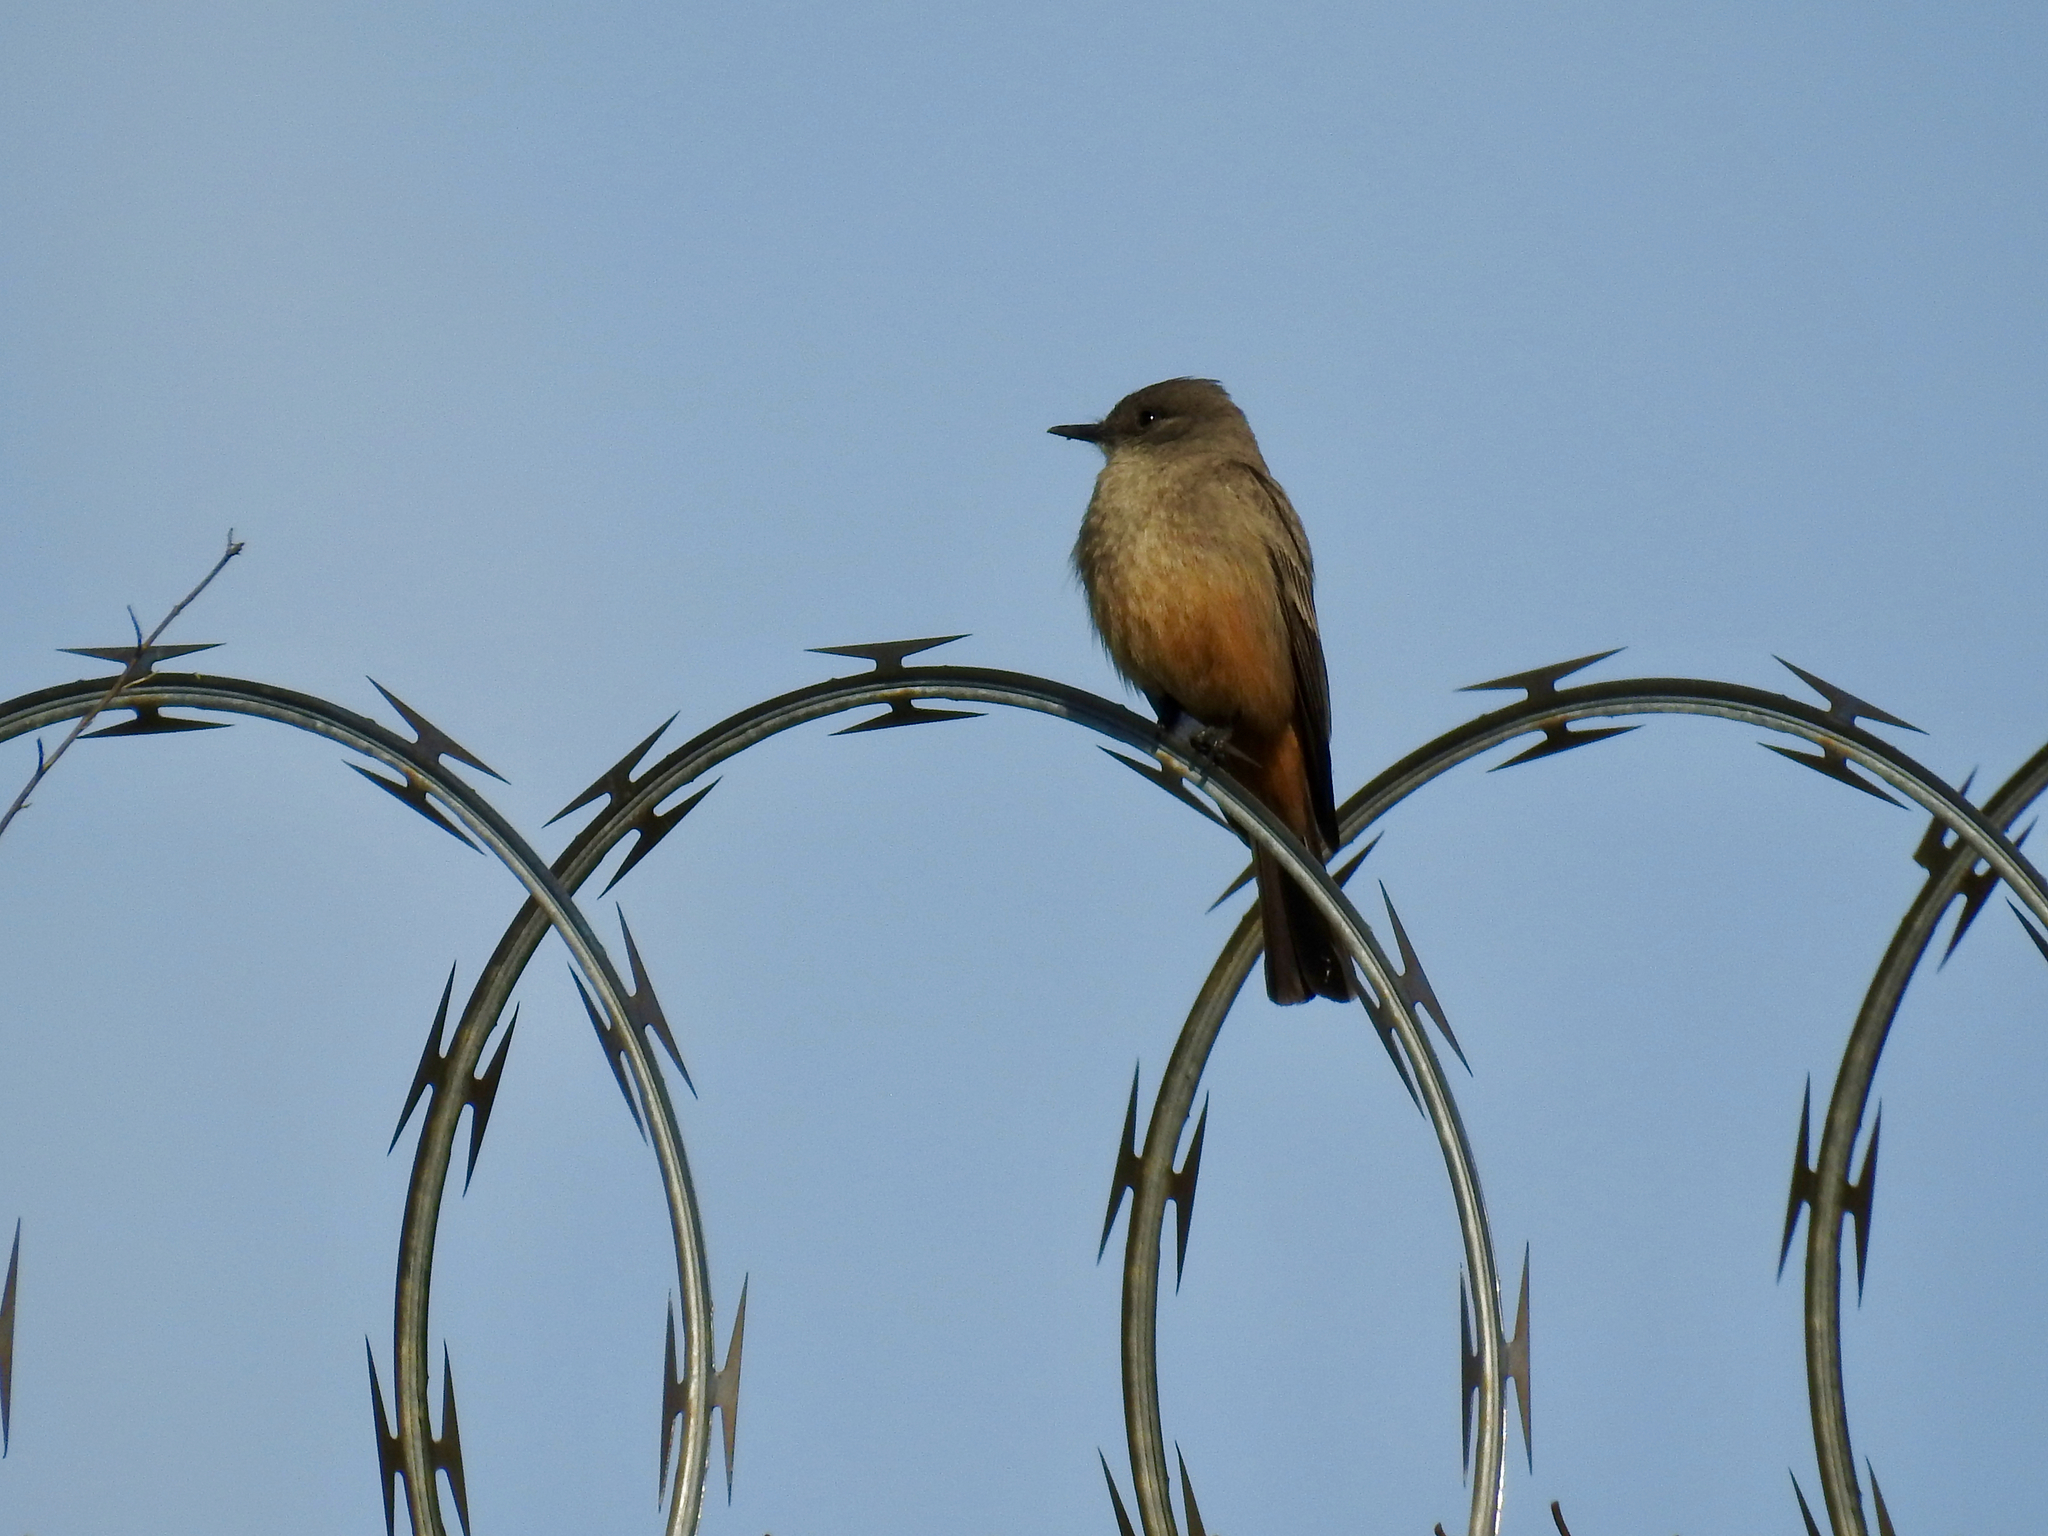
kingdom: Animalia
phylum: Chordata
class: Aves
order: Passeriformes
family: Tyrannidae
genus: Sayornis
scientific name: Sayornis saya
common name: Say's phoebe
